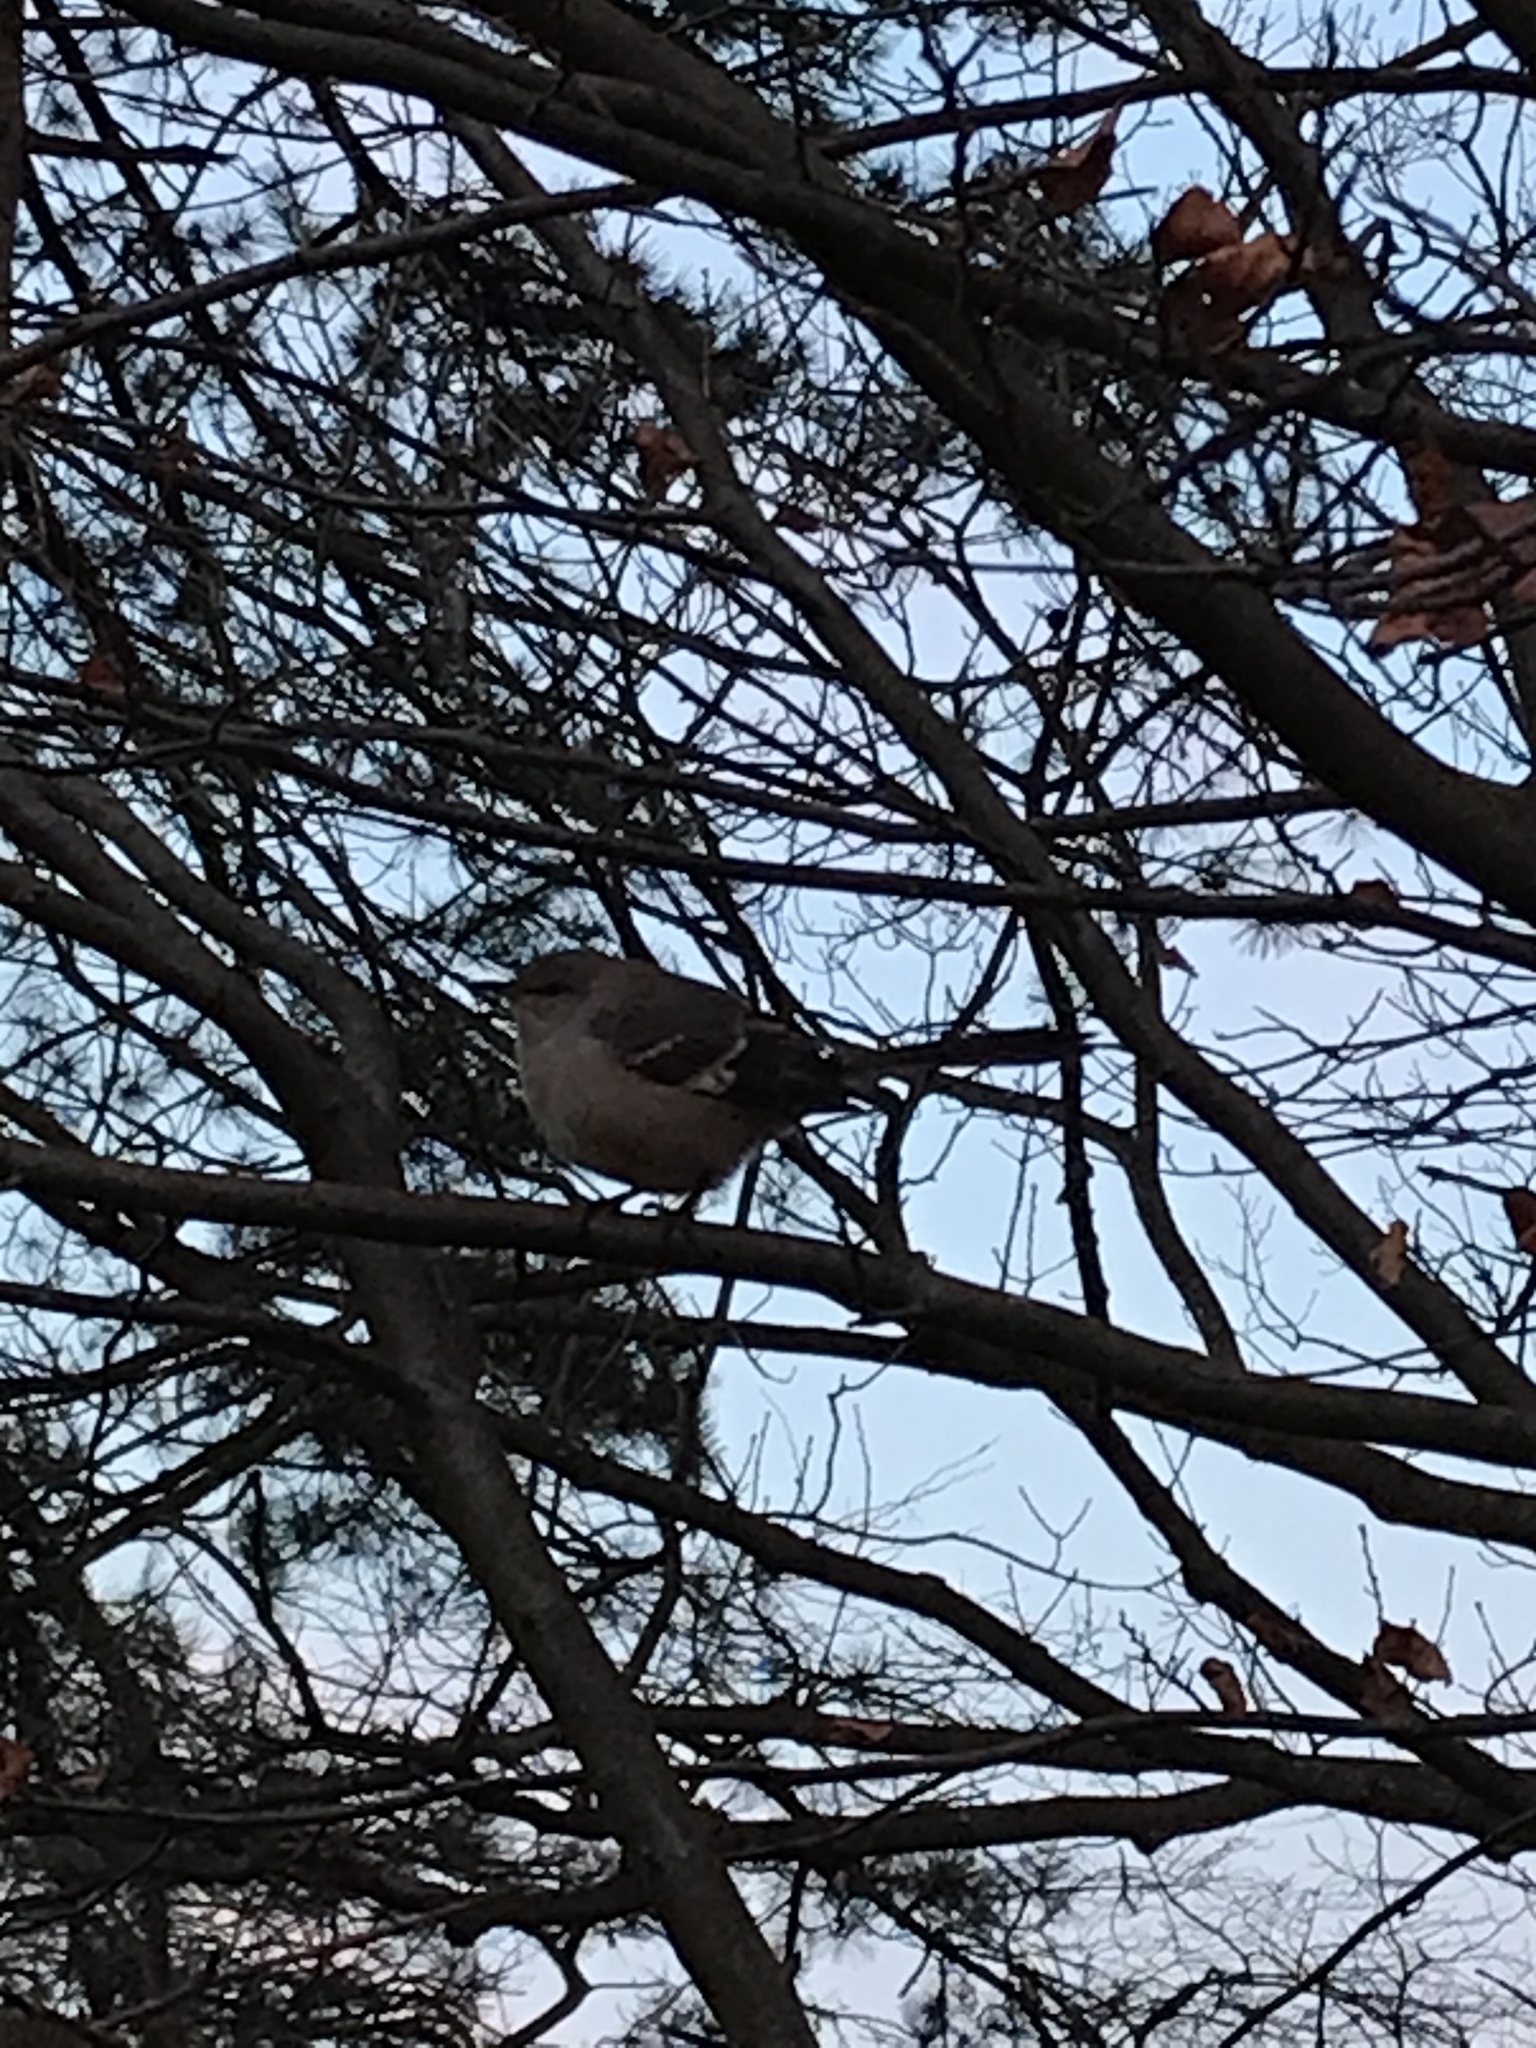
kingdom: Animalia
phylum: Chordata
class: Aves
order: Passeriformes
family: Mimidae
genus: Mimus
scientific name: Mimus polyglottos
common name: Northern mockingbird
